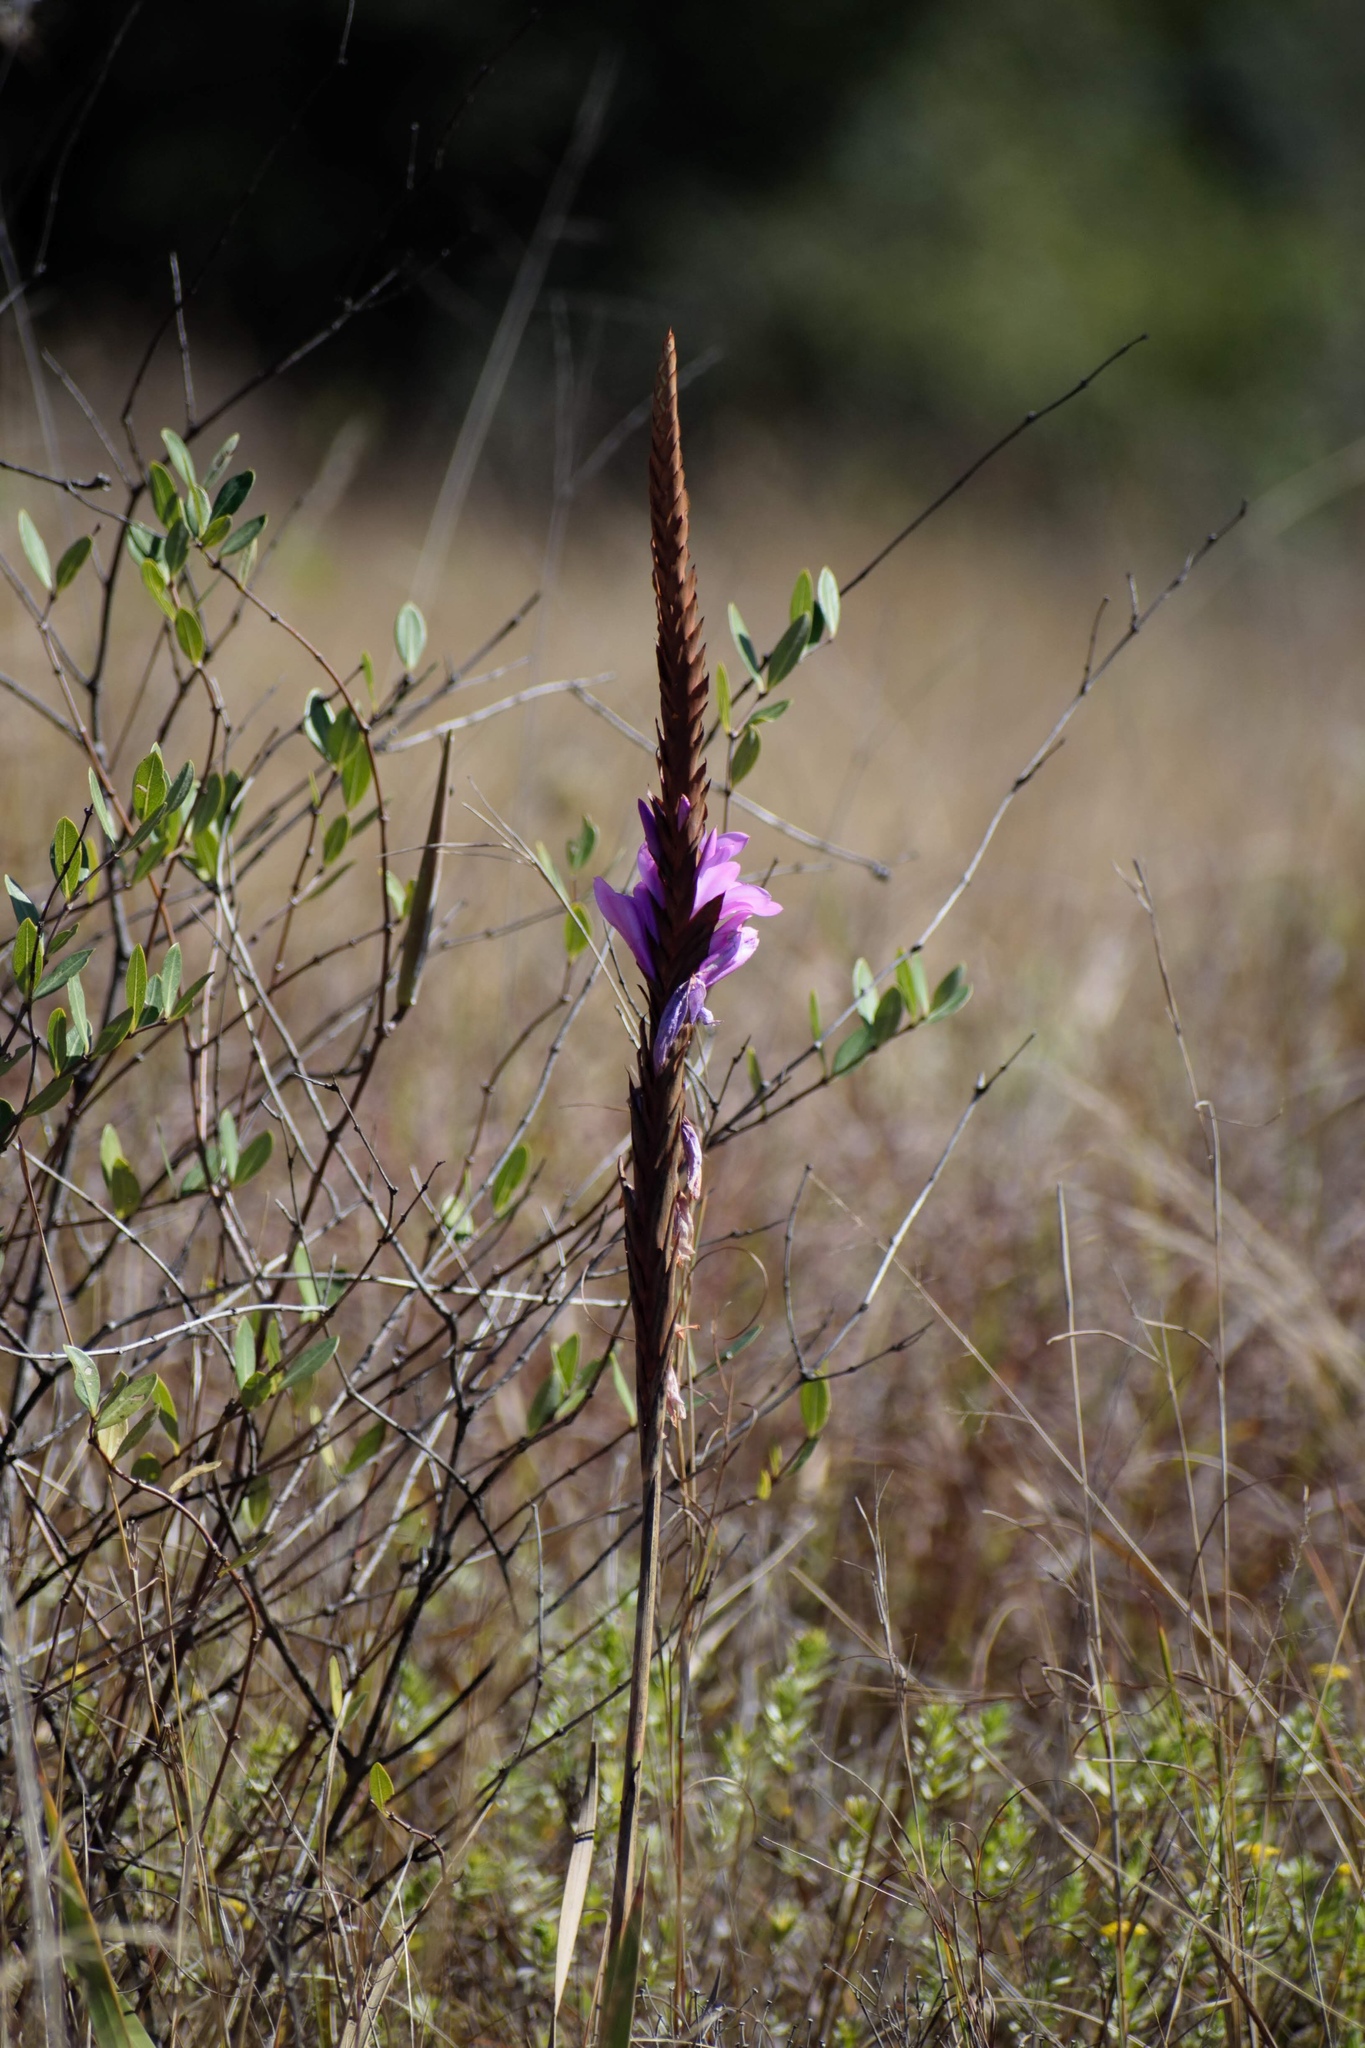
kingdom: Plantae
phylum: Tracheophyta
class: Liliopsida
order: Asparagales
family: Iridaceae
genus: Watsonia
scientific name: Watsonia densiflora
